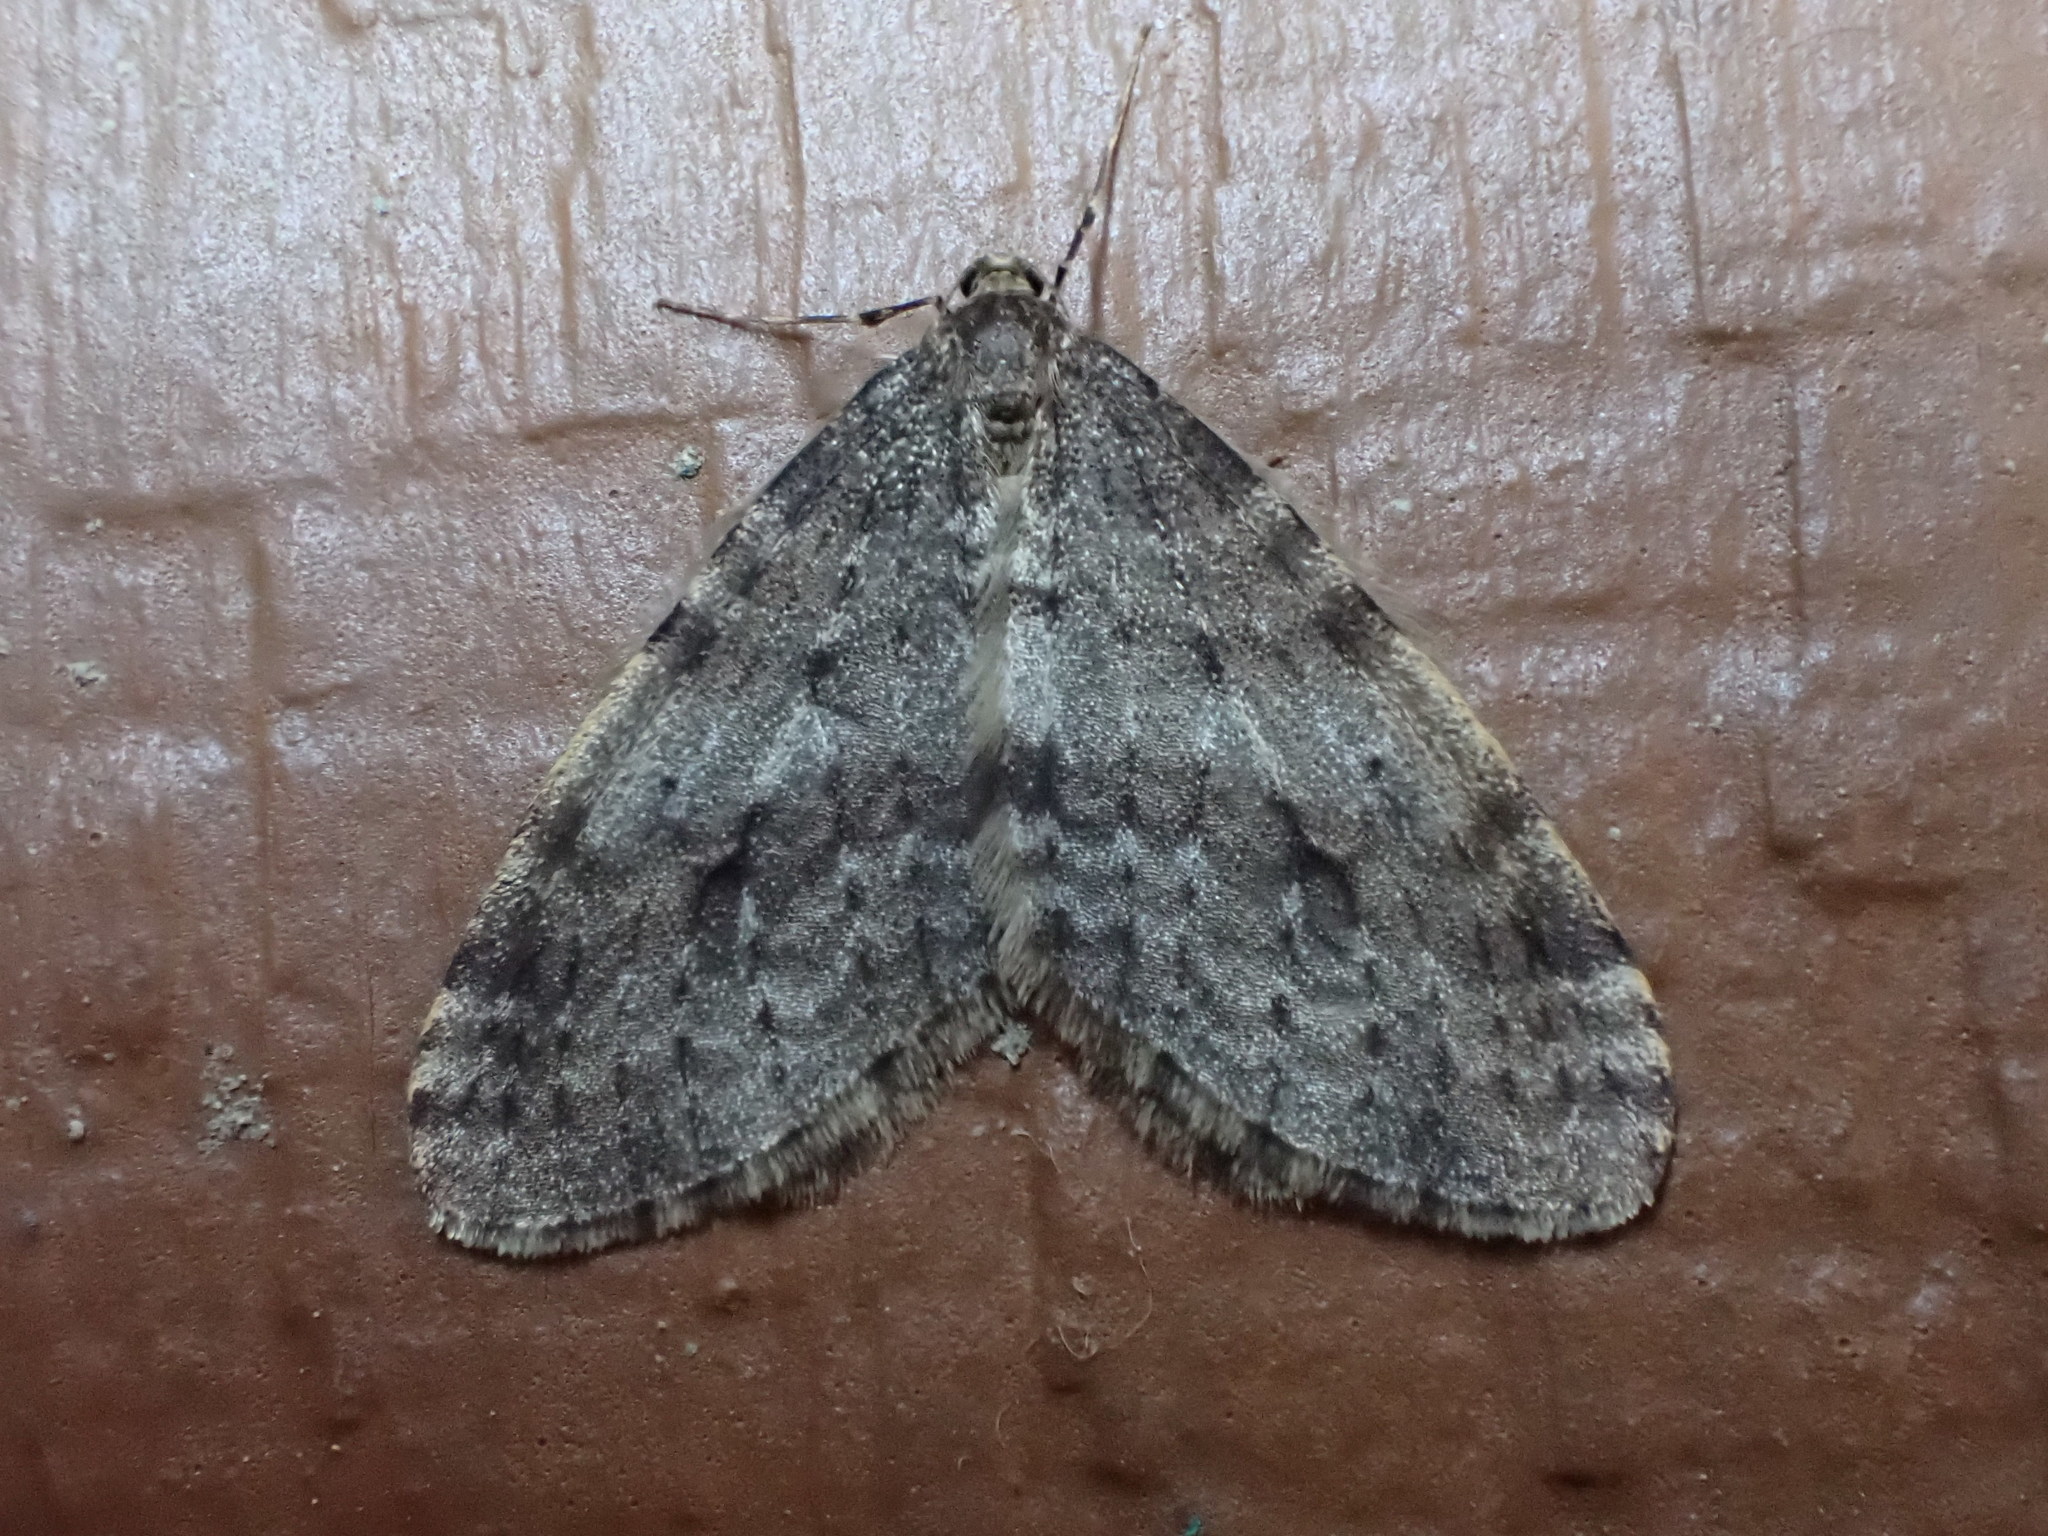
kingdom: Animalia
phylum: Arthropoda
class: Insecta
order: Lepidoptera
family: Geometridae
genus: Operophtera
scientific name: Operophtera occidentalis
